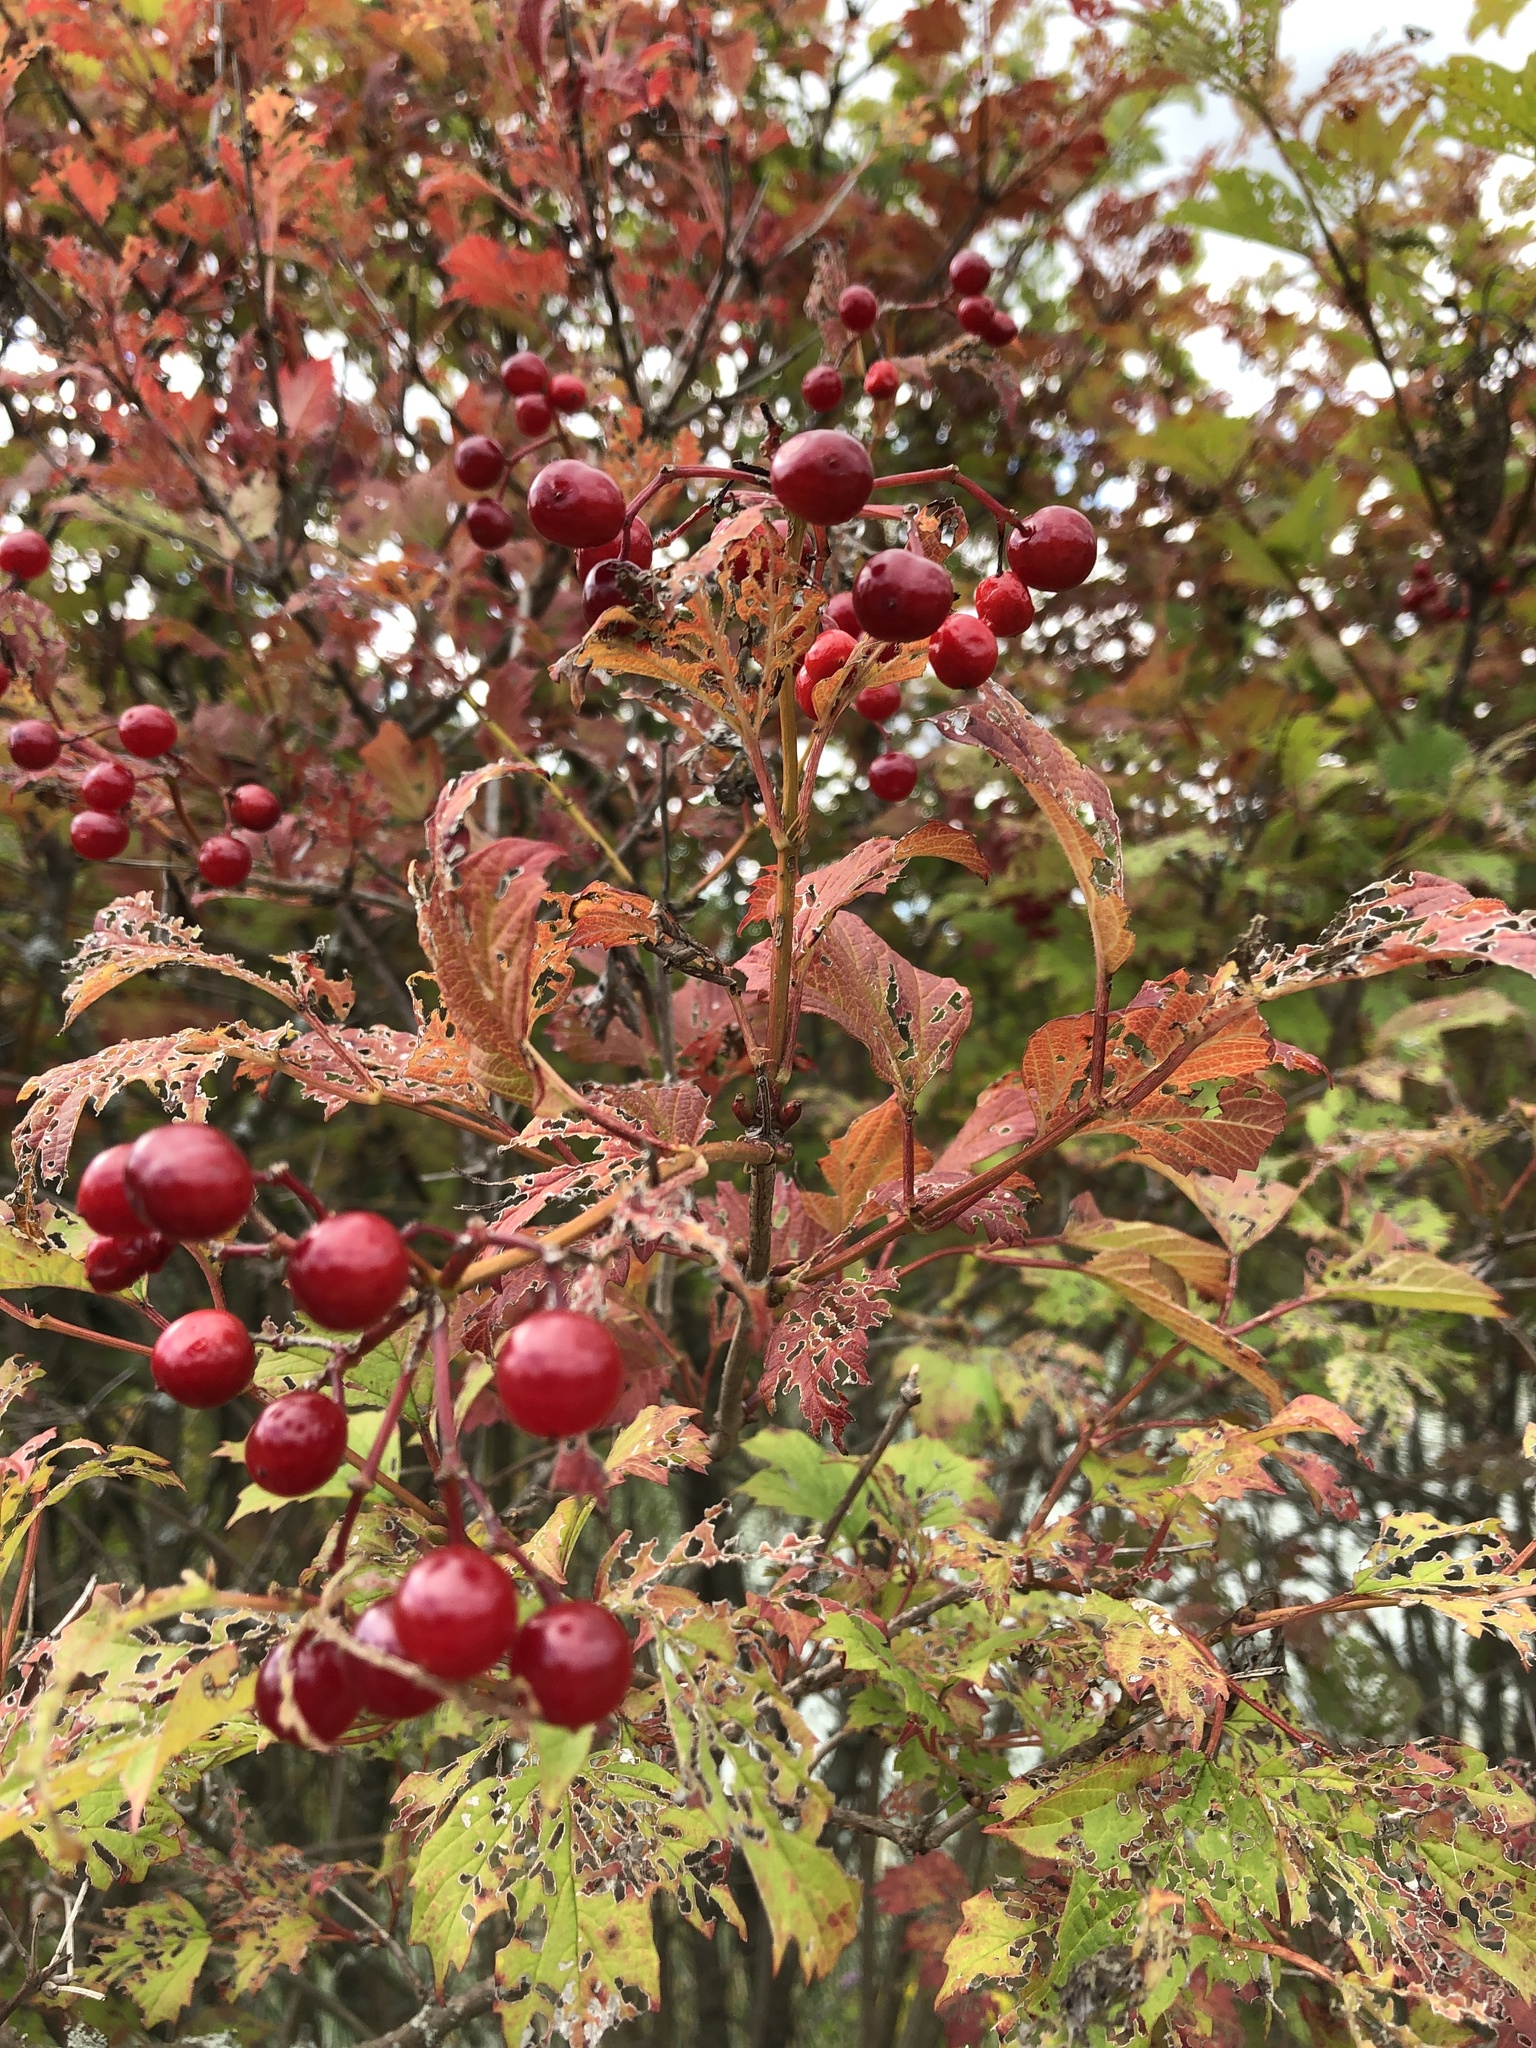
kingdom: Plantae
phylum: Tracheophyta
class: Magnoliopsida
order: Dipsacales
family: Viburnaceae
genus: Viburnum
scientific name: Viburnum opulus
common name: Guelder-rose
